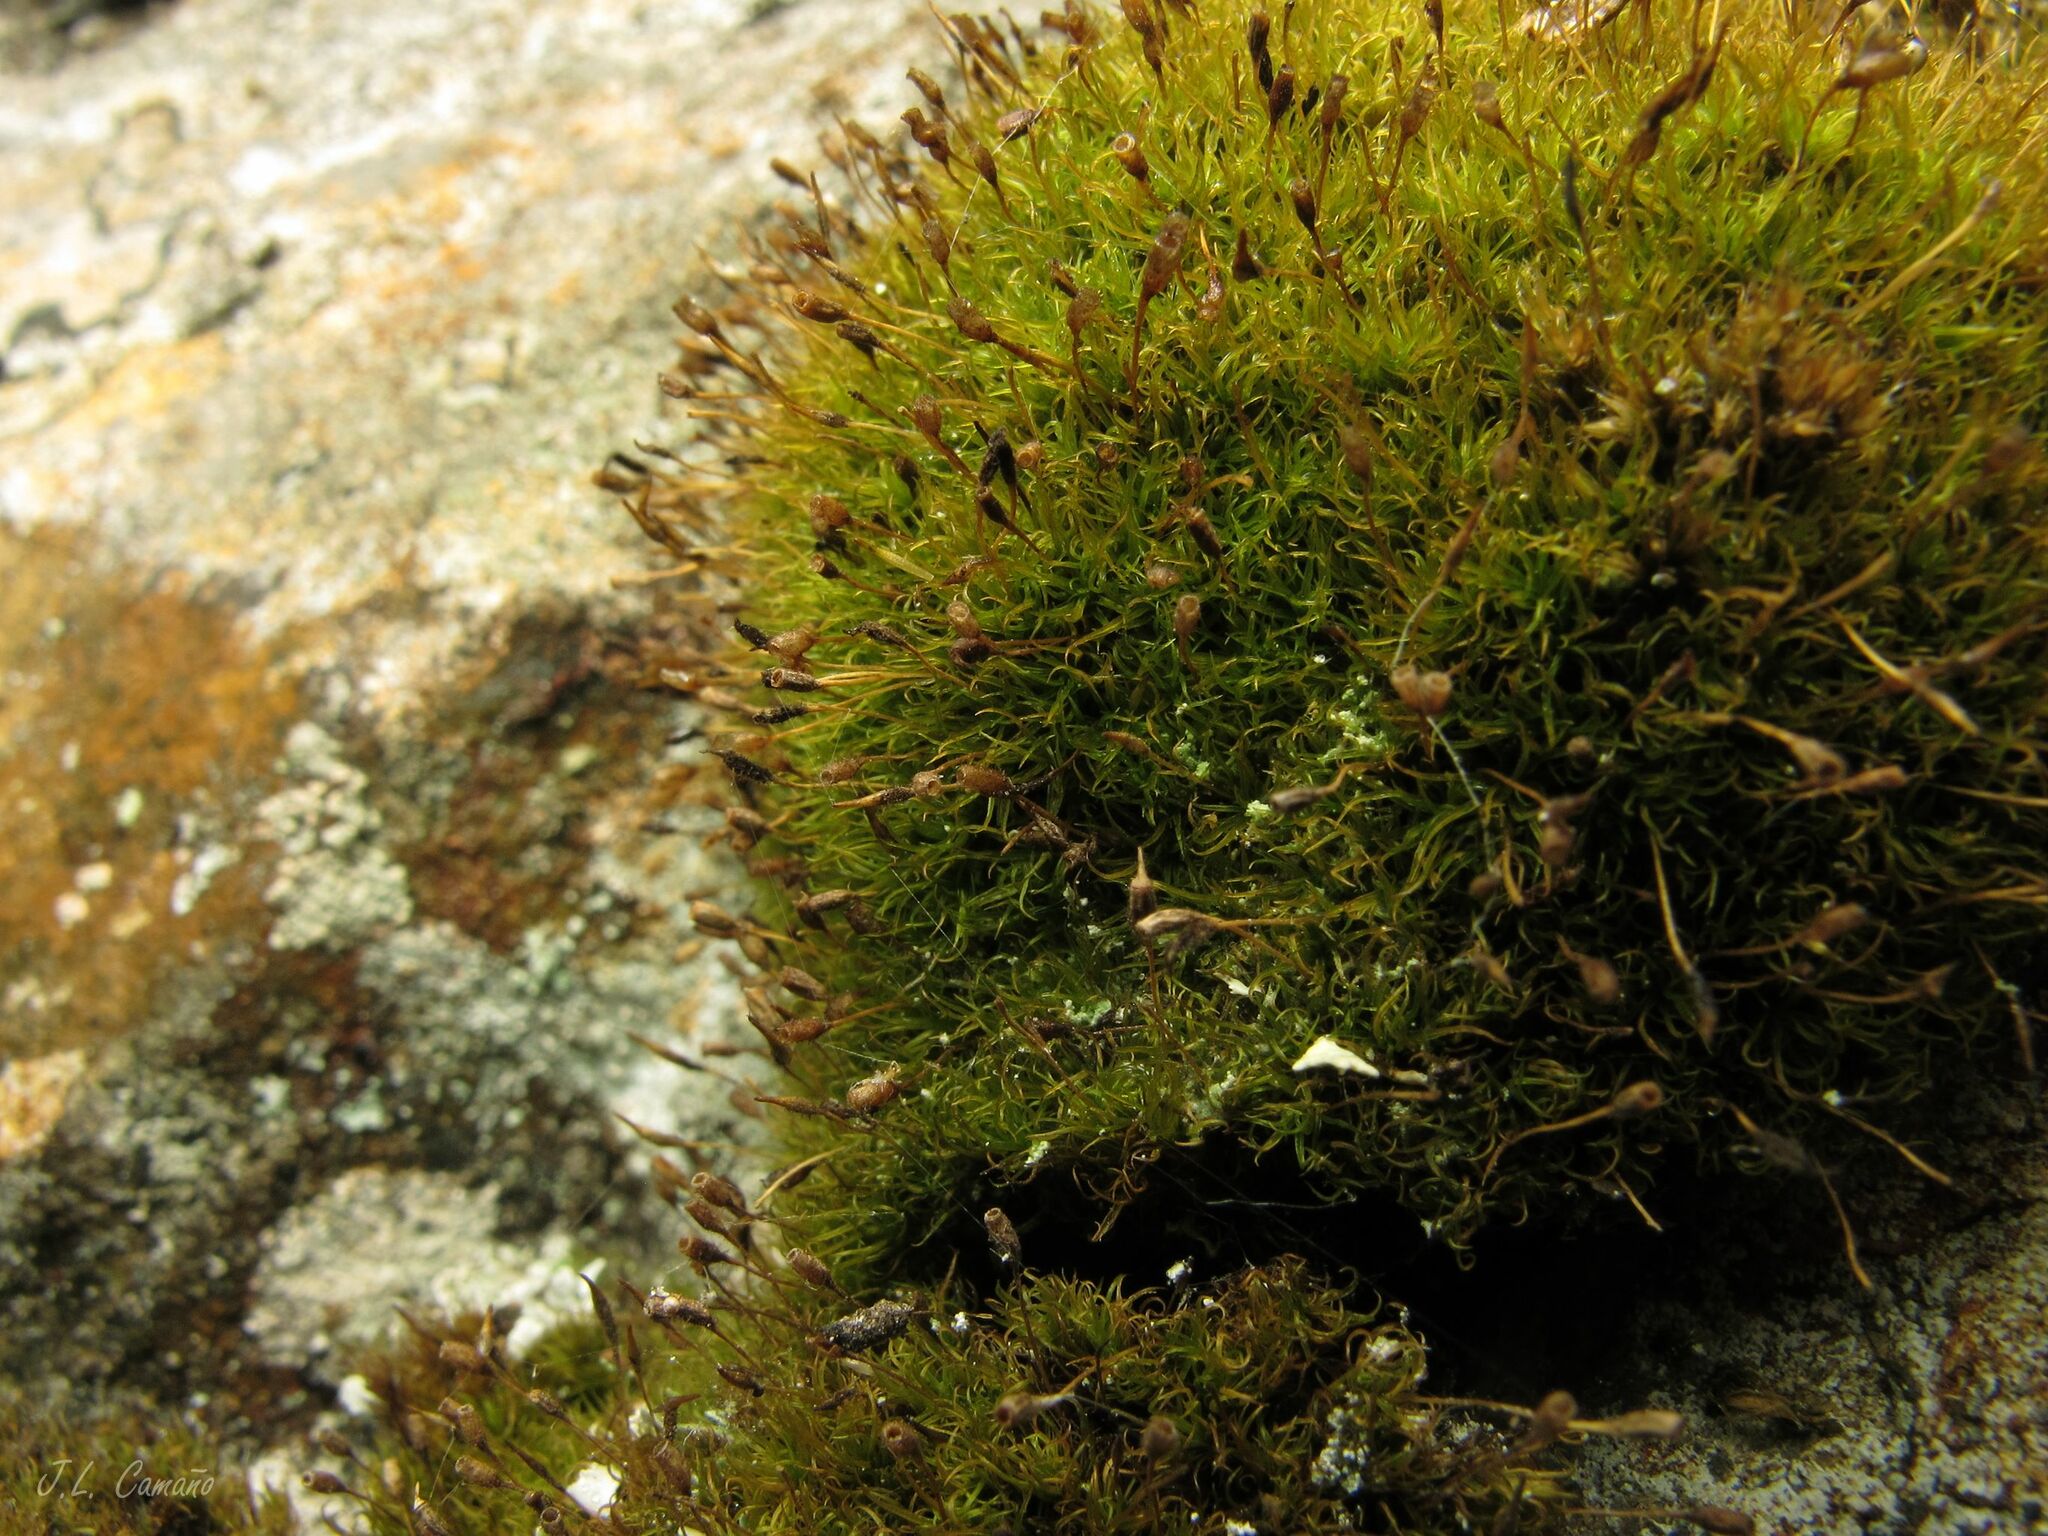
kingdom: Plantae
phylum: Bryophyta
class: Bryopsida
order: Dicranales
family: Rhabdoweisiaceae
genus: Dicranoweisia
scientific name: Dicranoweisia cirrata
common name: Common pincushion
